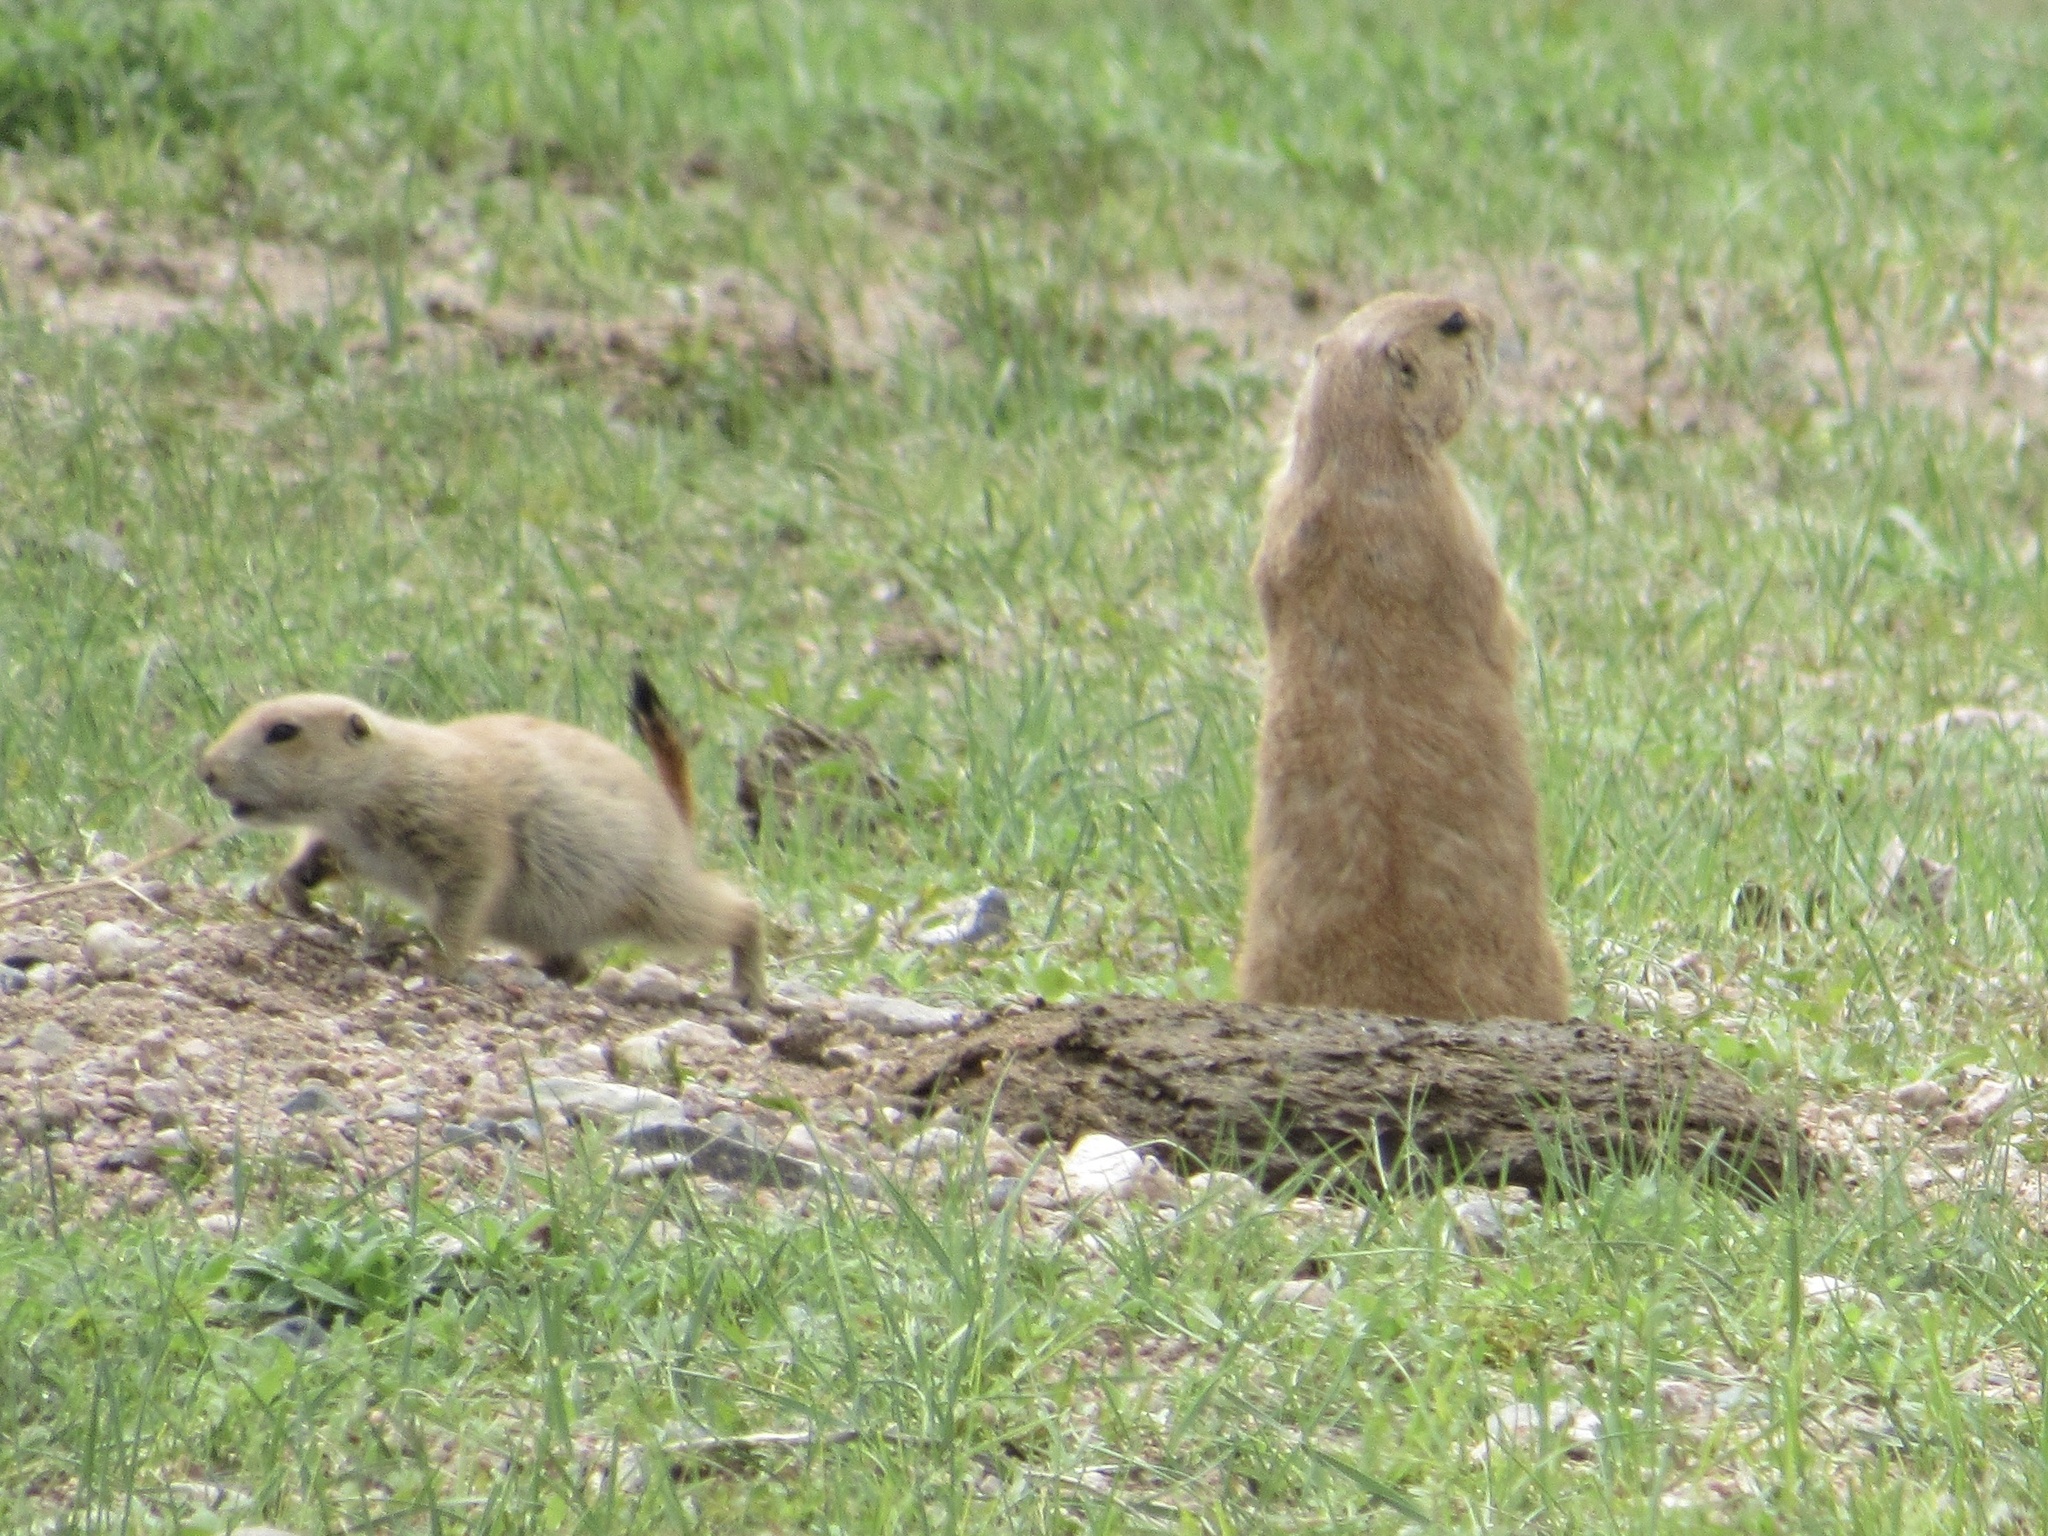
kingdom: Animalia
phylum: Chordata
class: Mammalia
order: Rodentia
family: Sciuridae
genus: Cynomys
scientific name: Cynomys ludovicianus
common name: Black-tailed prairie dog
